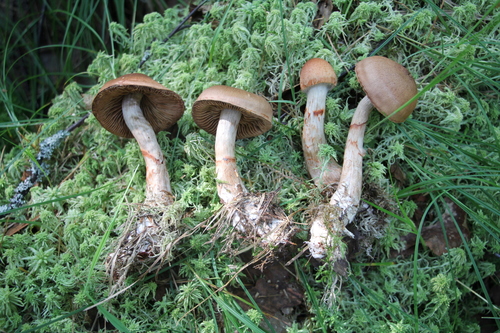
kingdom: Fungi
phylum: Basidiomycota
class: Agaricomycetes
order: Agaricales
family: Cortinariaceae
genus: Cortinarius
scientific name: Cortinarius armillatus
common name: Red banded webcap
